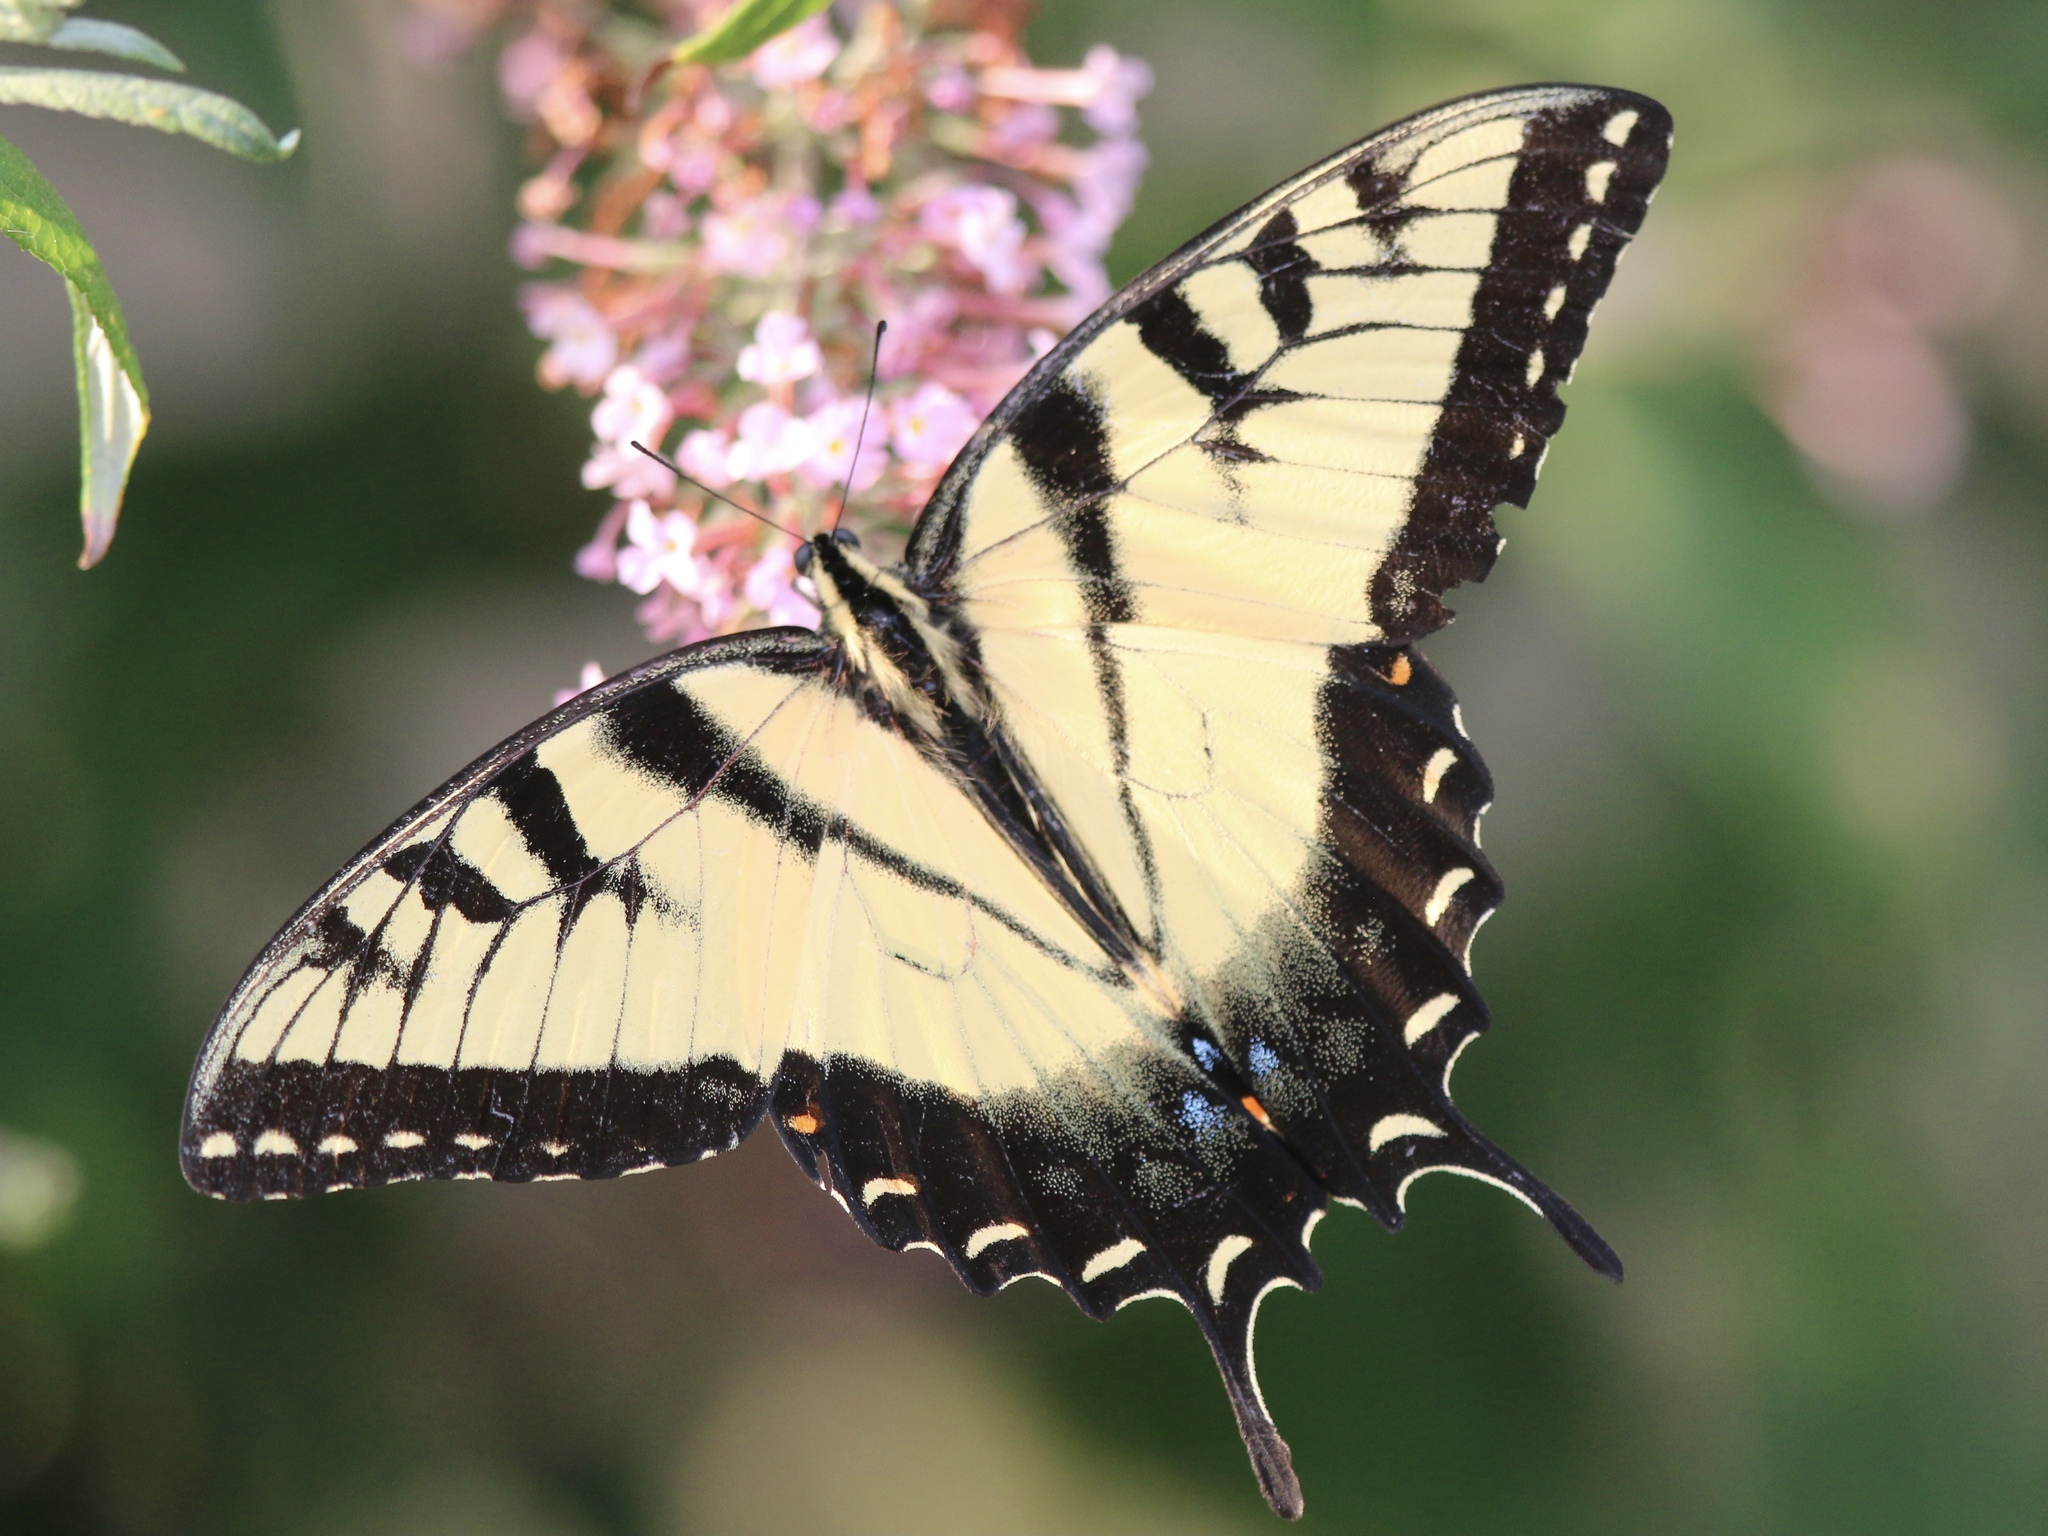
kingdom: Animalia
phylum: Arthropoda
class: Insecta
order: Lepidoptera
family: Papilionidae
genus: Papilio
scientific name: Papilio glaucus
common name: Tiger swallowtail
